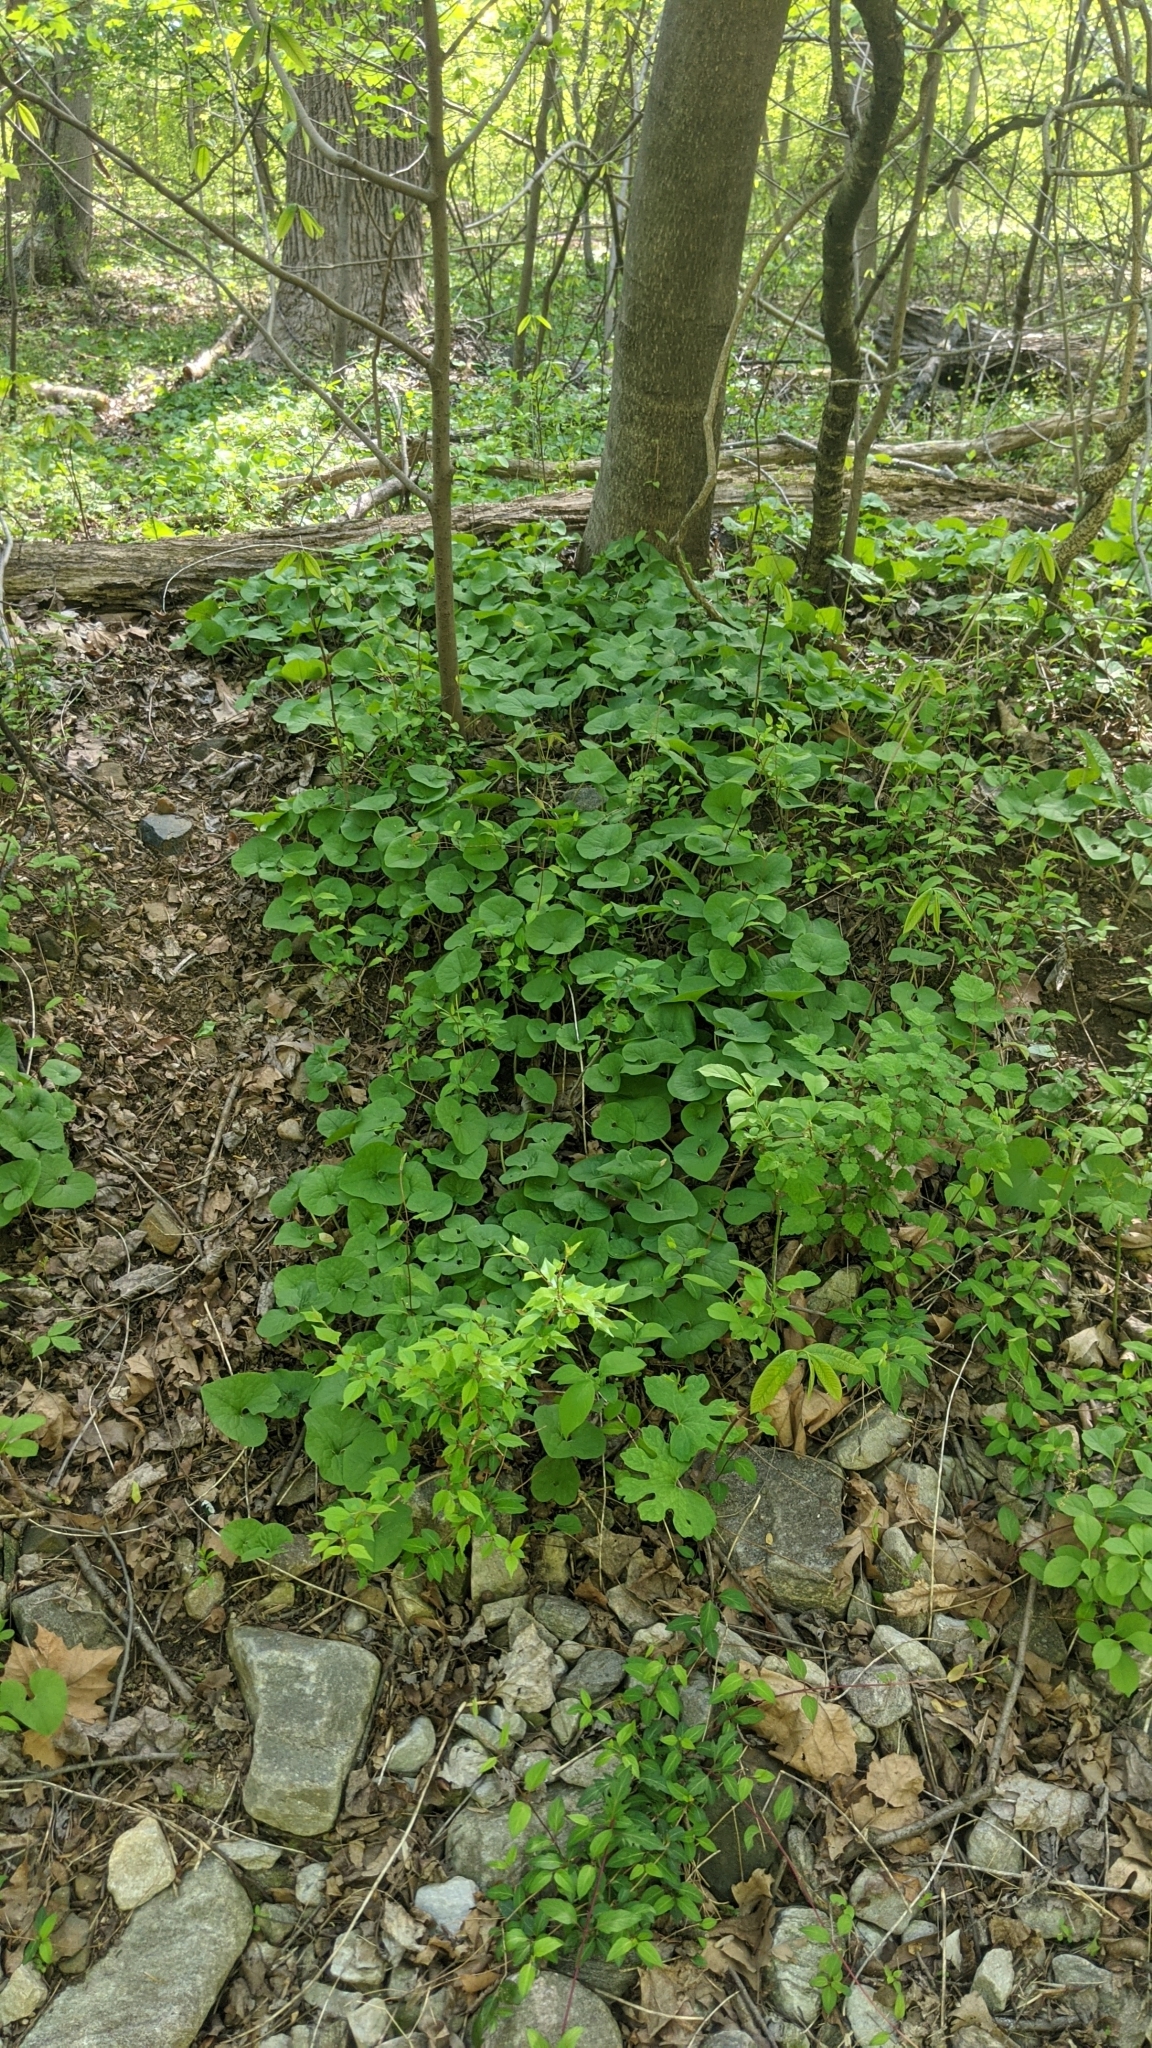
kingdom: Plantae
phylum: Tracheophyta
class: Magnoliopsida
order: Piperales
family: Aristolochiaceae
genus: Asarum
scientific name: Asarum canadense
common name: Wild ginger
